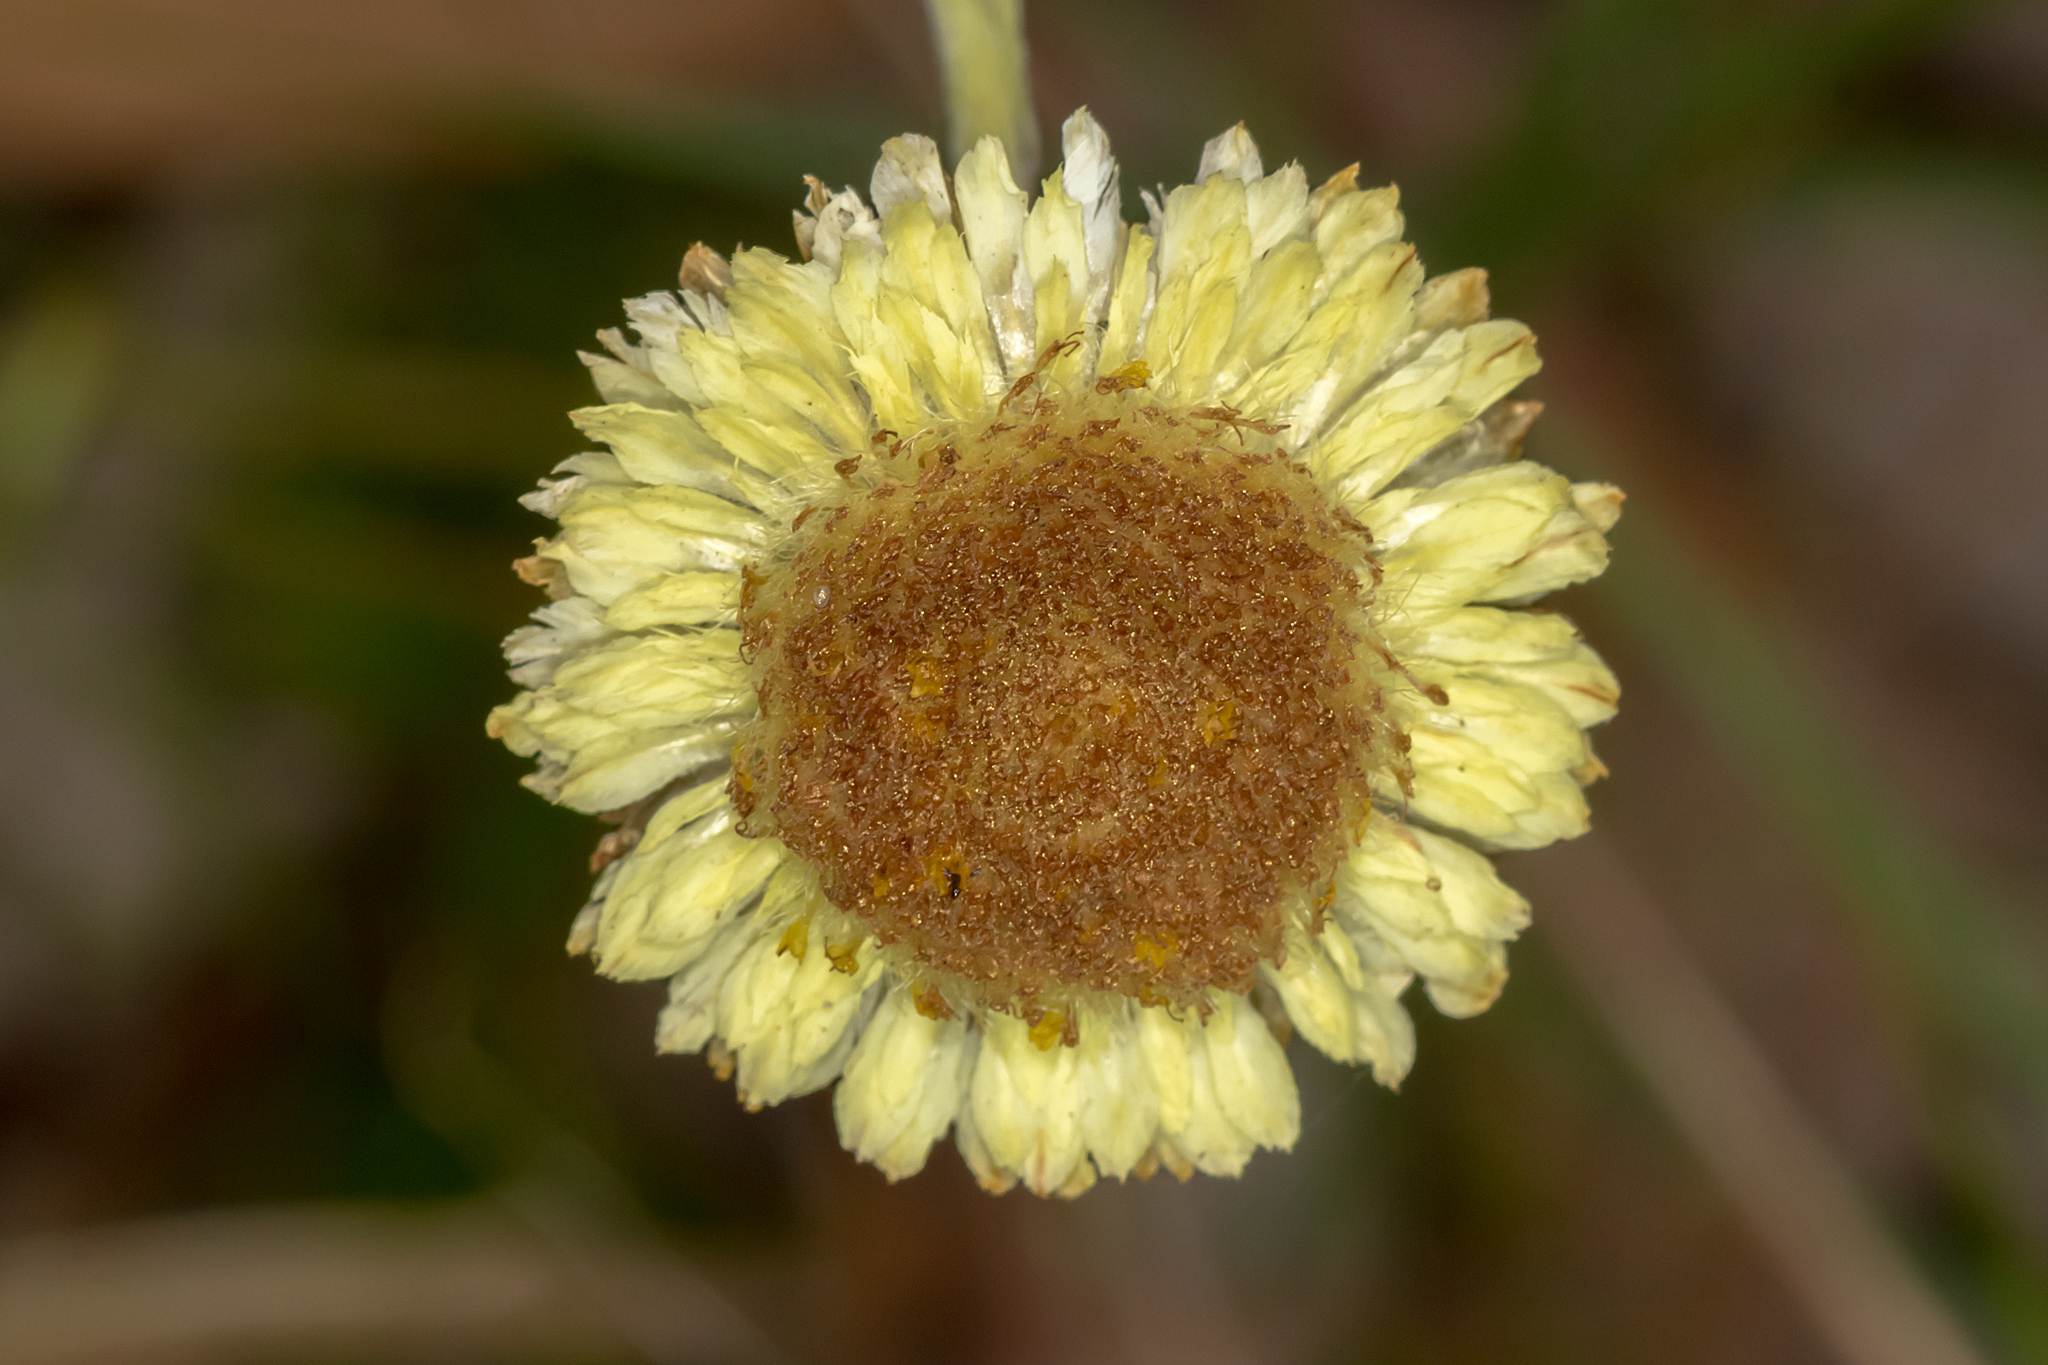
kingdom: Plantae
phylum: Tracheophyta
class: Magnoliopsida
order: Asterales
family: Asteraceae
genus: Coronidium
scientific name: Coronidium scorpioides
